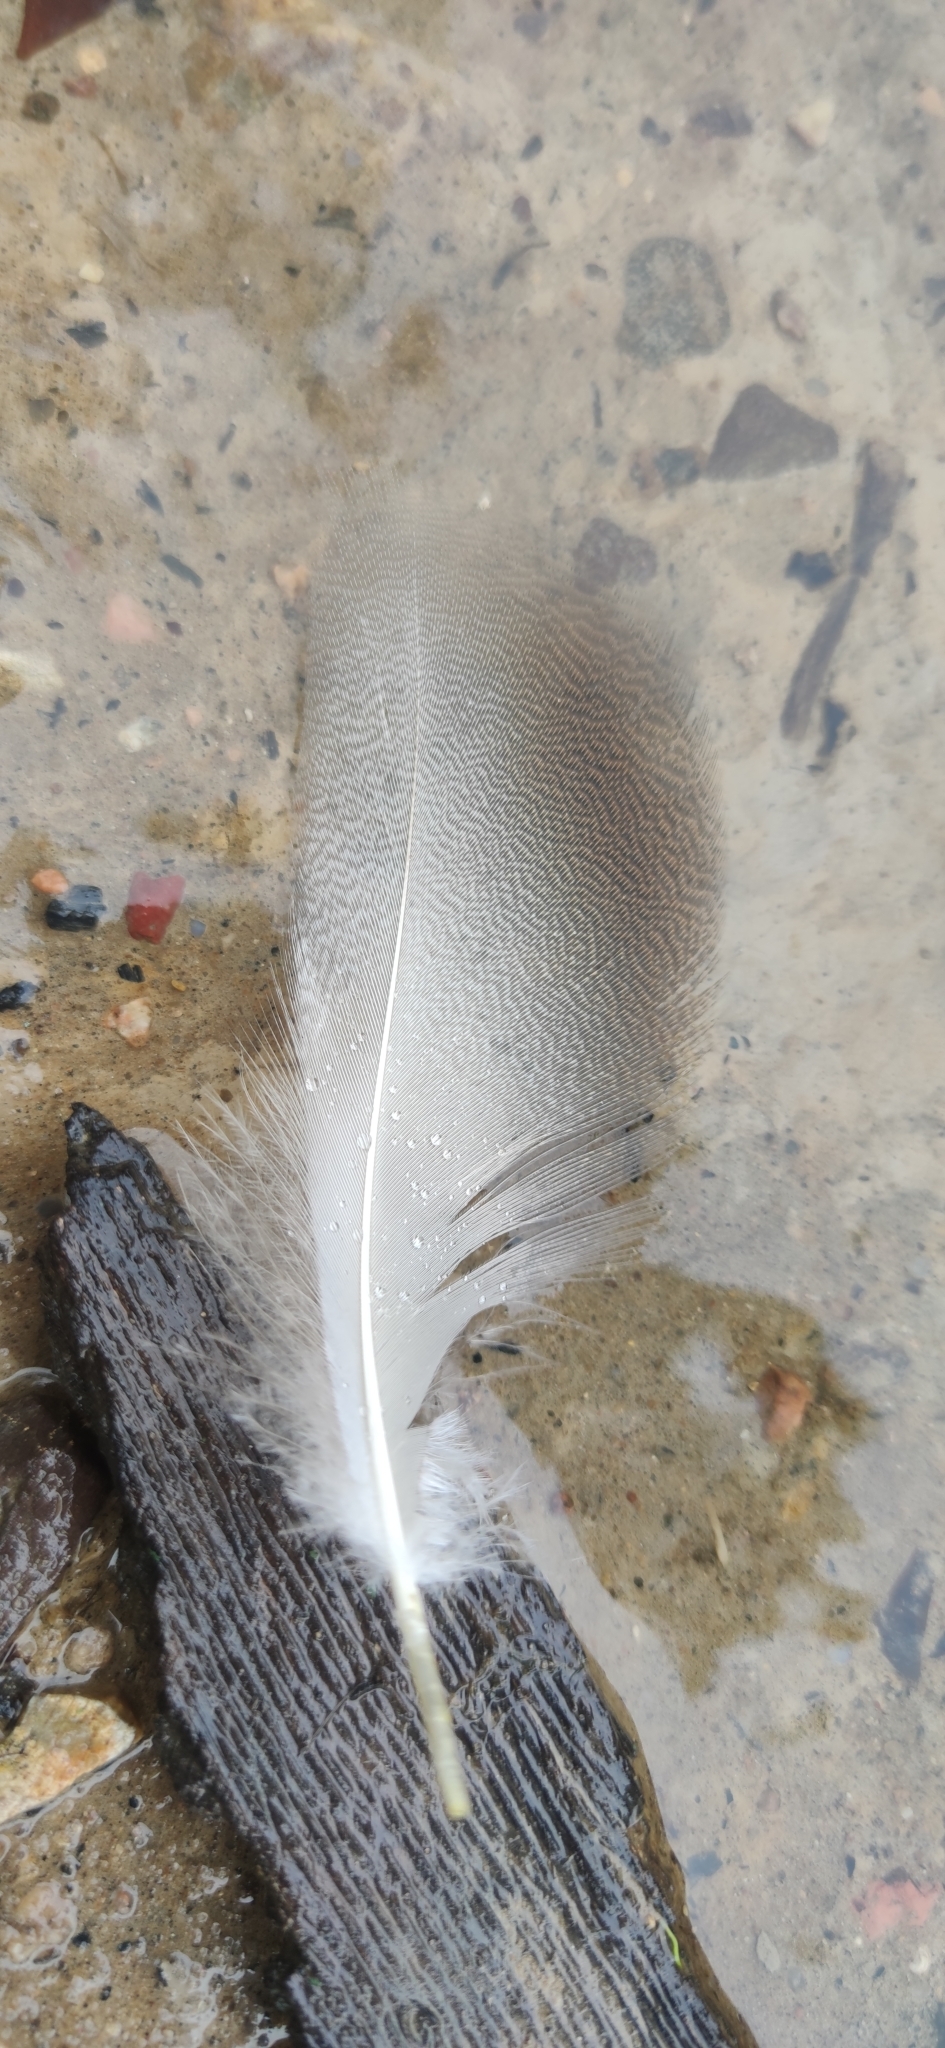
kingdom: Animalia
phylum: Chordata
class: Aves
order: Anseriformes
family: Anatidae
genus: Anas
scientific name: Anas platyrhynchos
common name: Mallard
